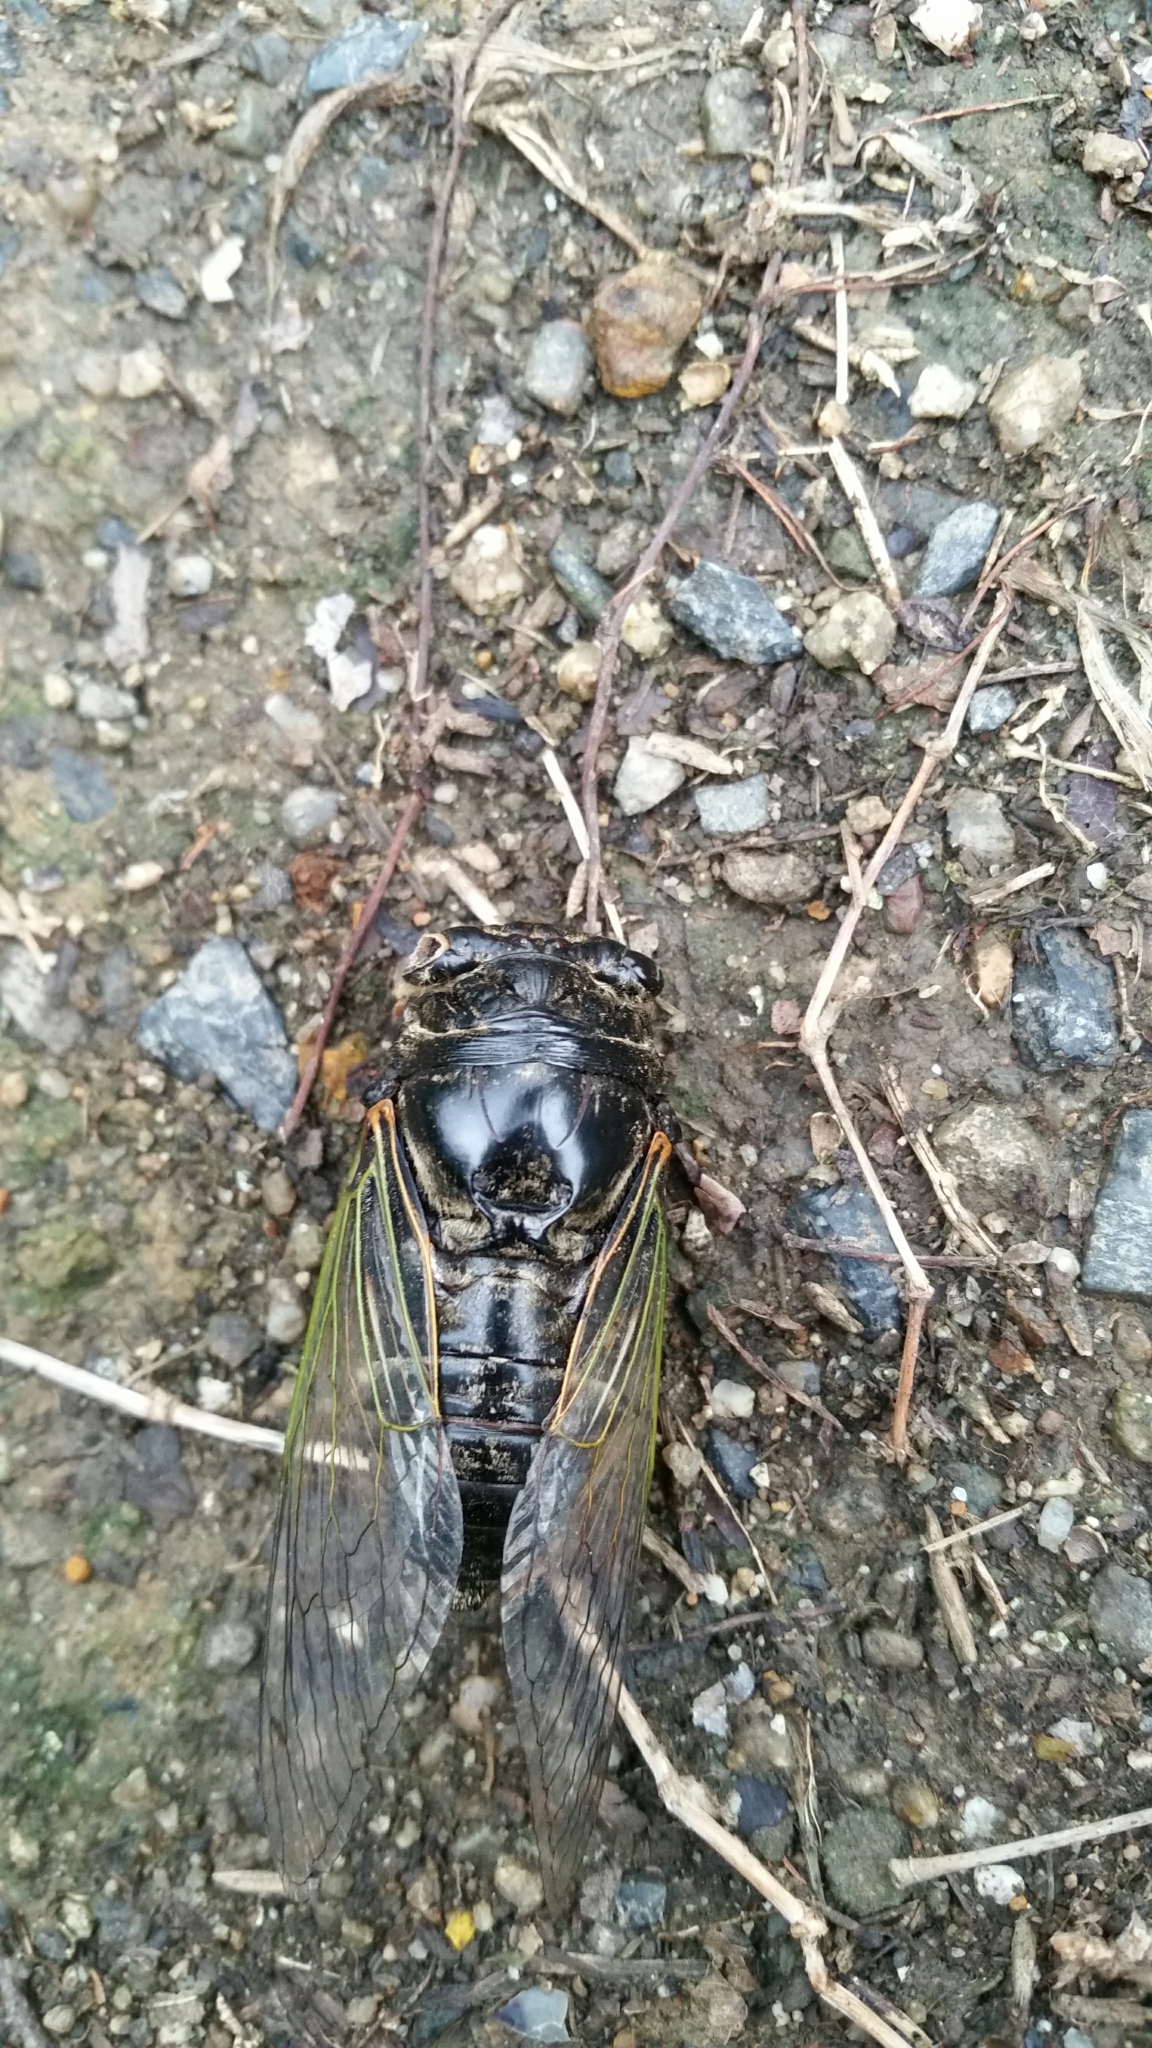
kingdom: Animalia
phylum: Arthropoda
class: Insecta
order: Hemiptera
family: Cicadidae
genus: Cryptotympana
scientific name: Cryptotympana facialis
